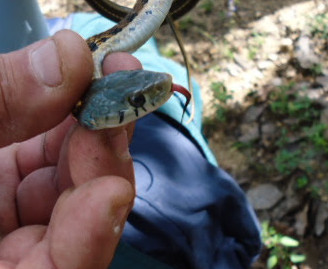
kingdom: Animalia
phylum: Chordata
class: Squamata
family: Colubridae
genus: Thamnophis
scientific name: Thamnophis cyrtopsis
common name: Black-necked gartersnake
